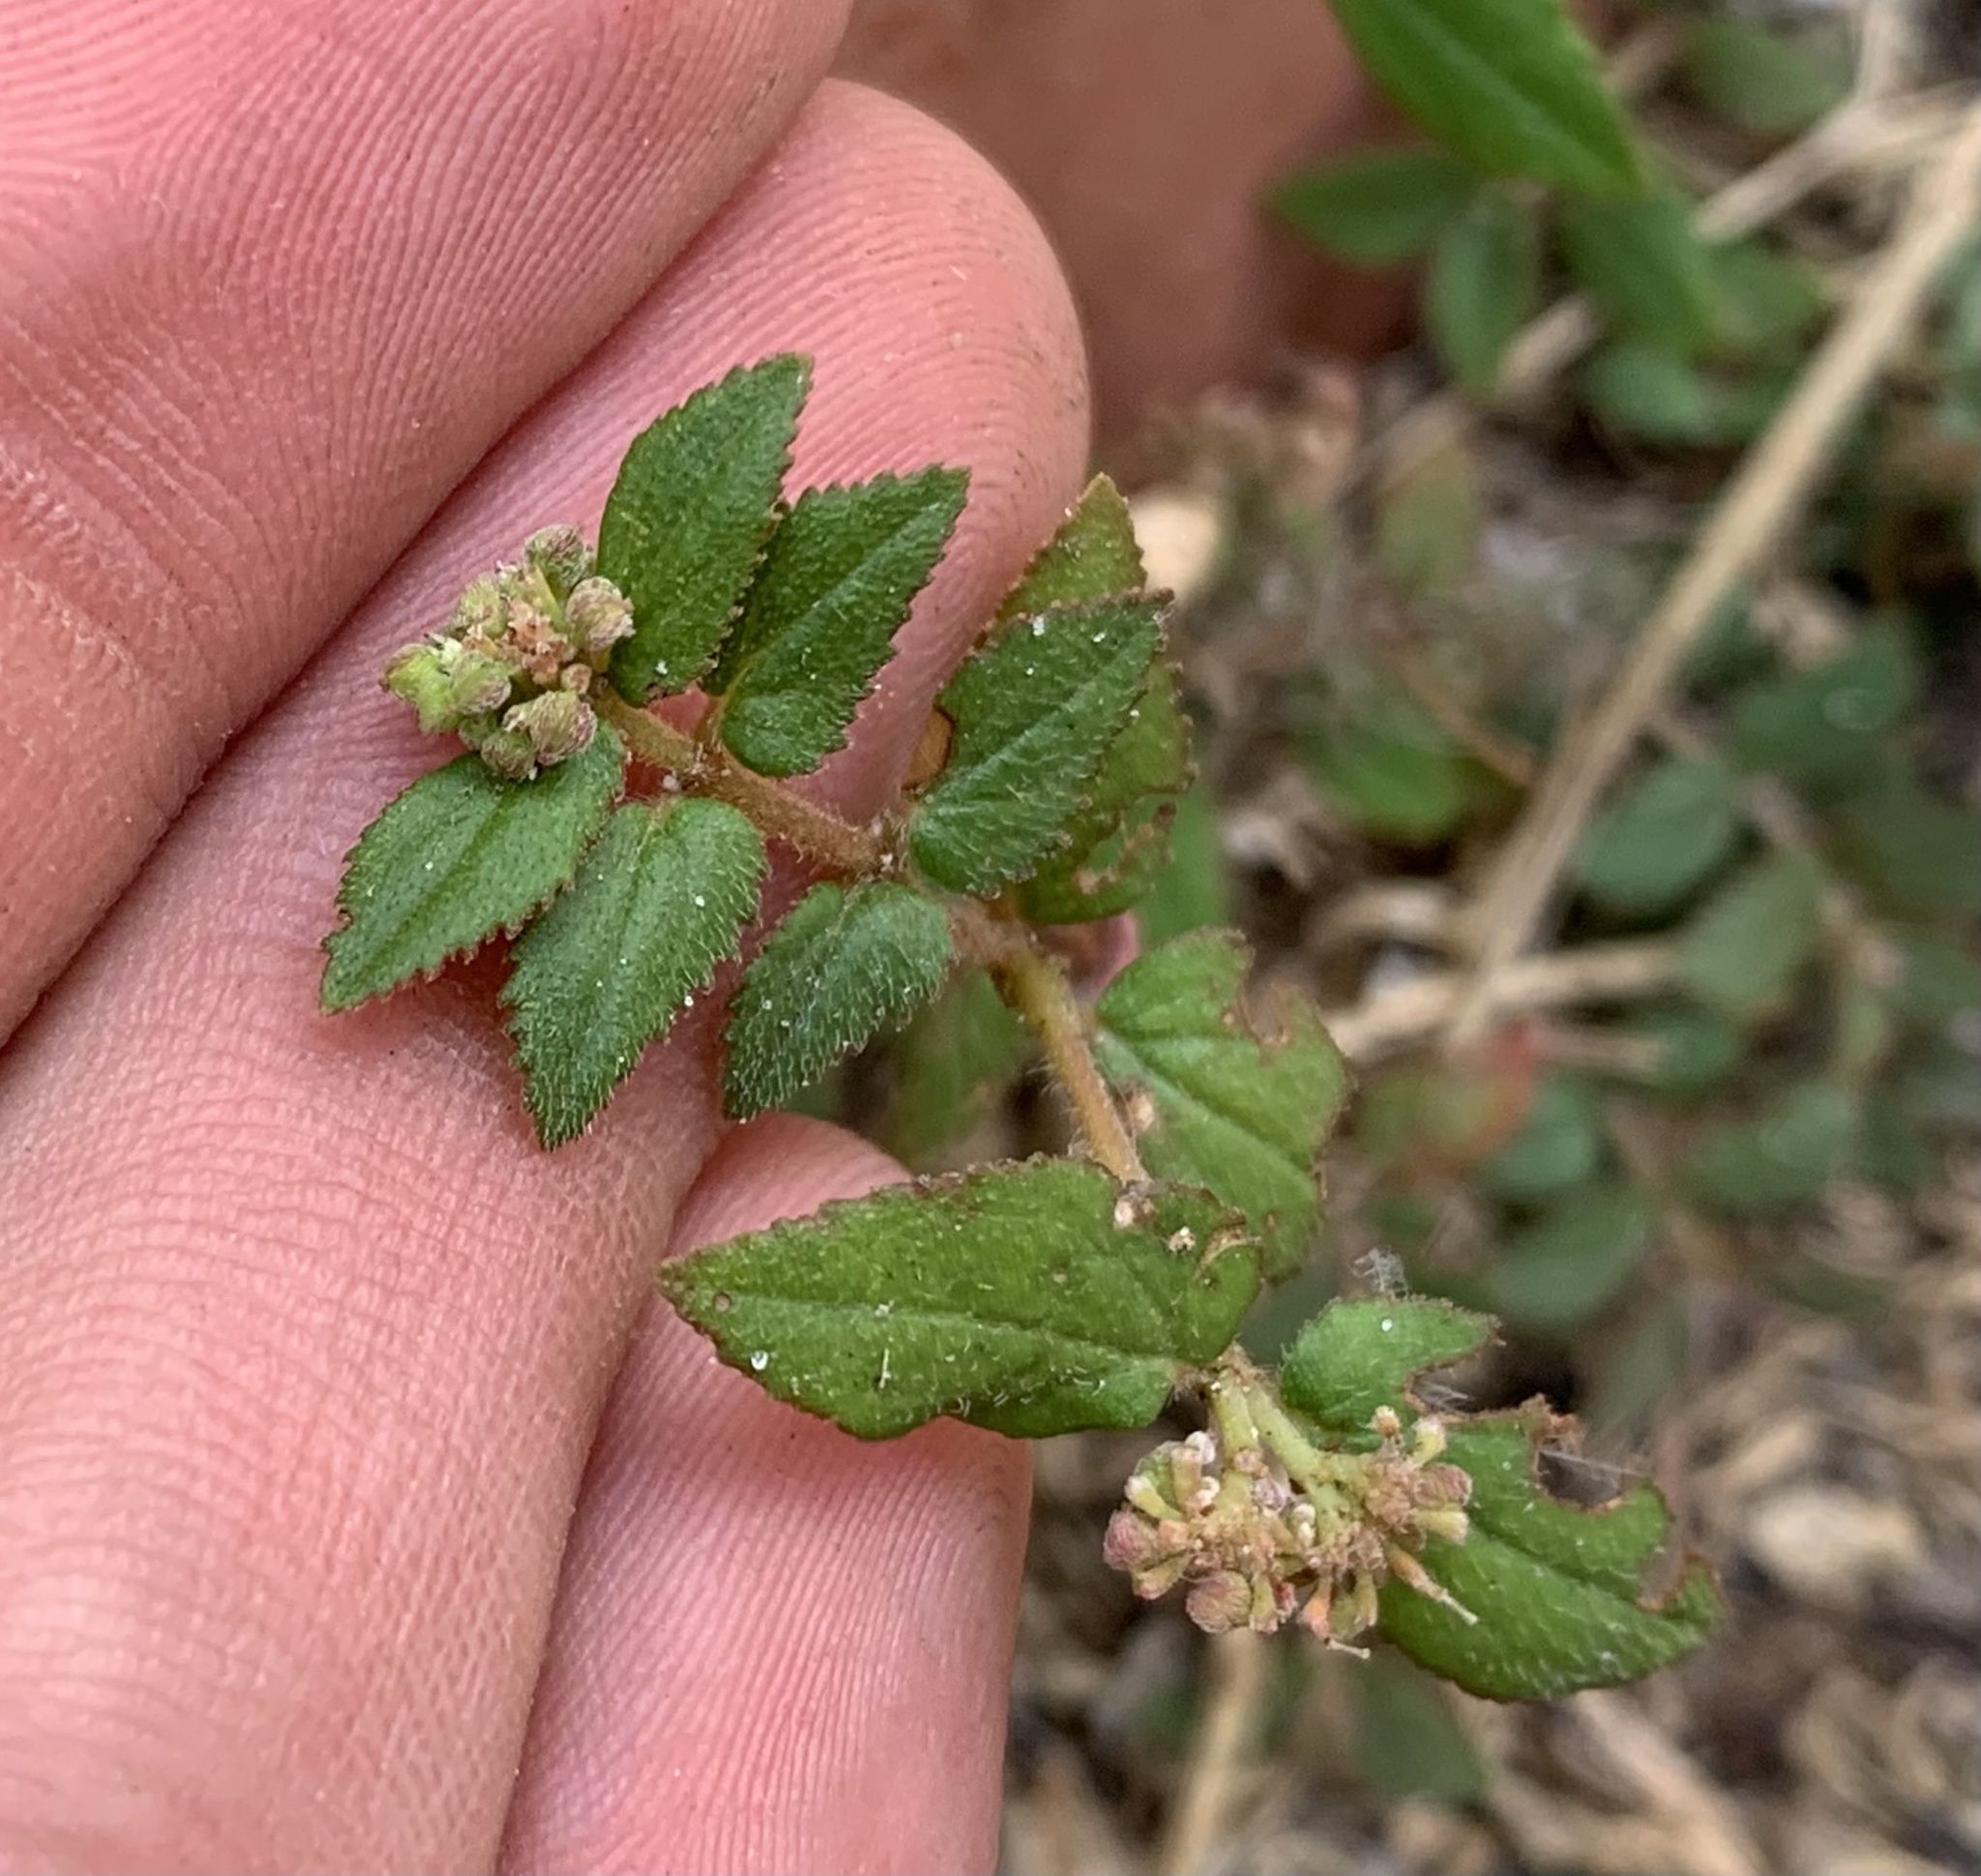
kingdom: Plantae
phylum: Tracheophyta
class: Magnoliopsida
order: Malpighiales
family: Euphorbiaceae
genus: Euphorbia
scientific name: Euphorbia ophthalmica
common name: Florida hammock sandmat
